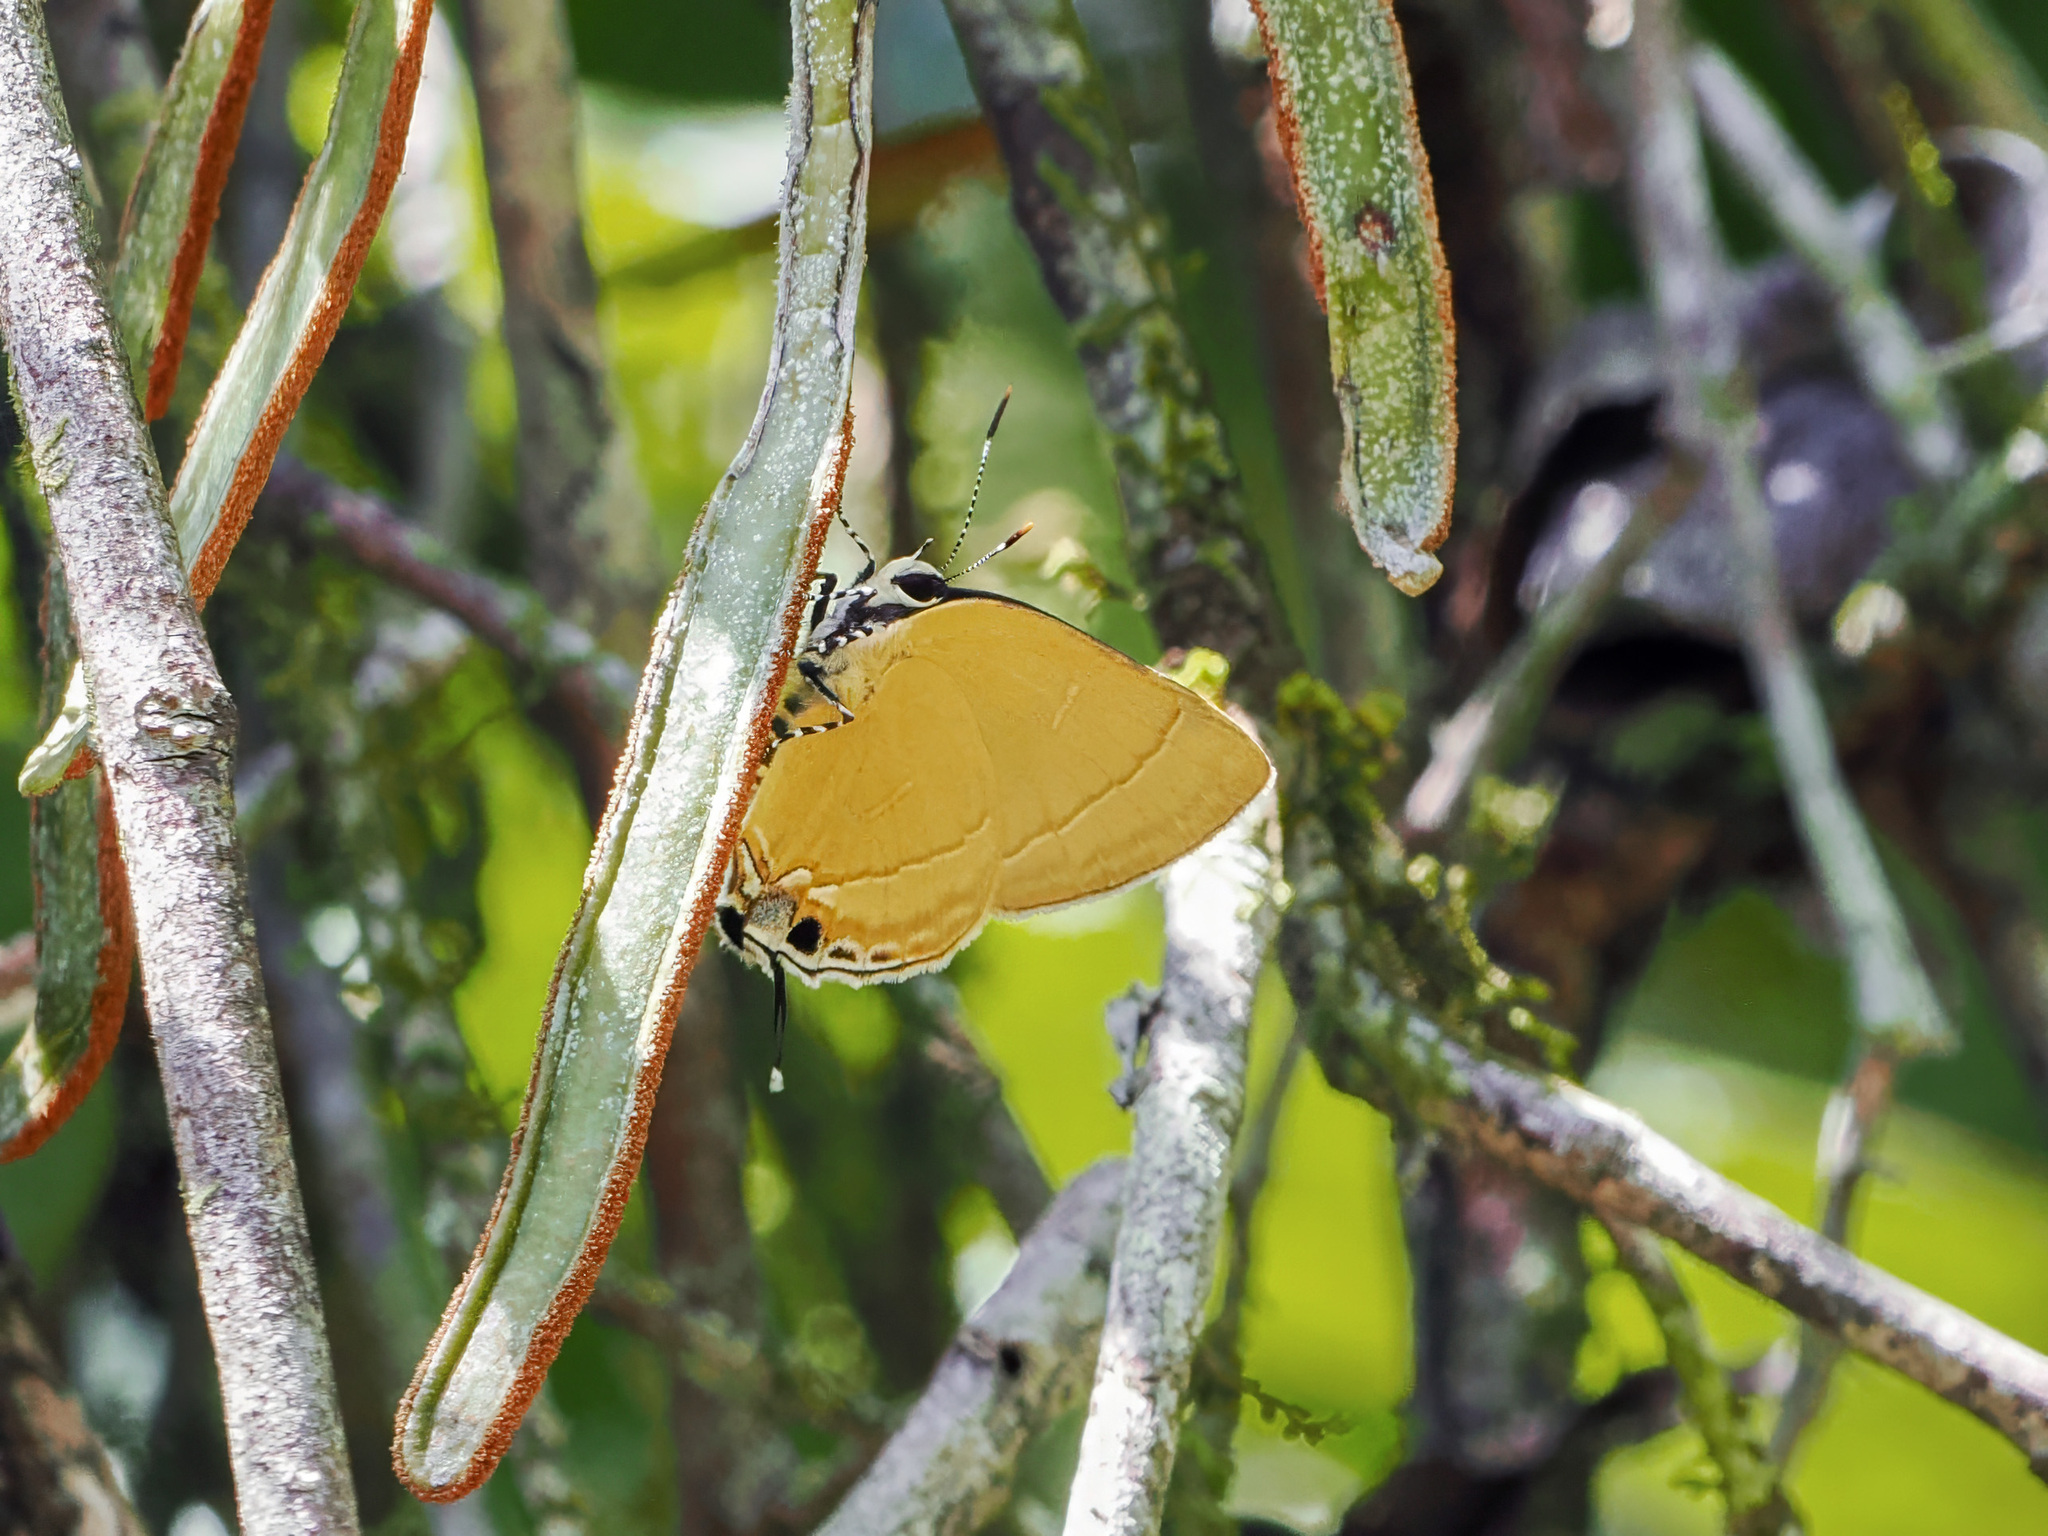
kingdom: Animalia
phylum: Arthropoda
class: Insecta
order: Lepidoptera
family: Lycaenidae
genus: Rapala
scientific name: Rapala
